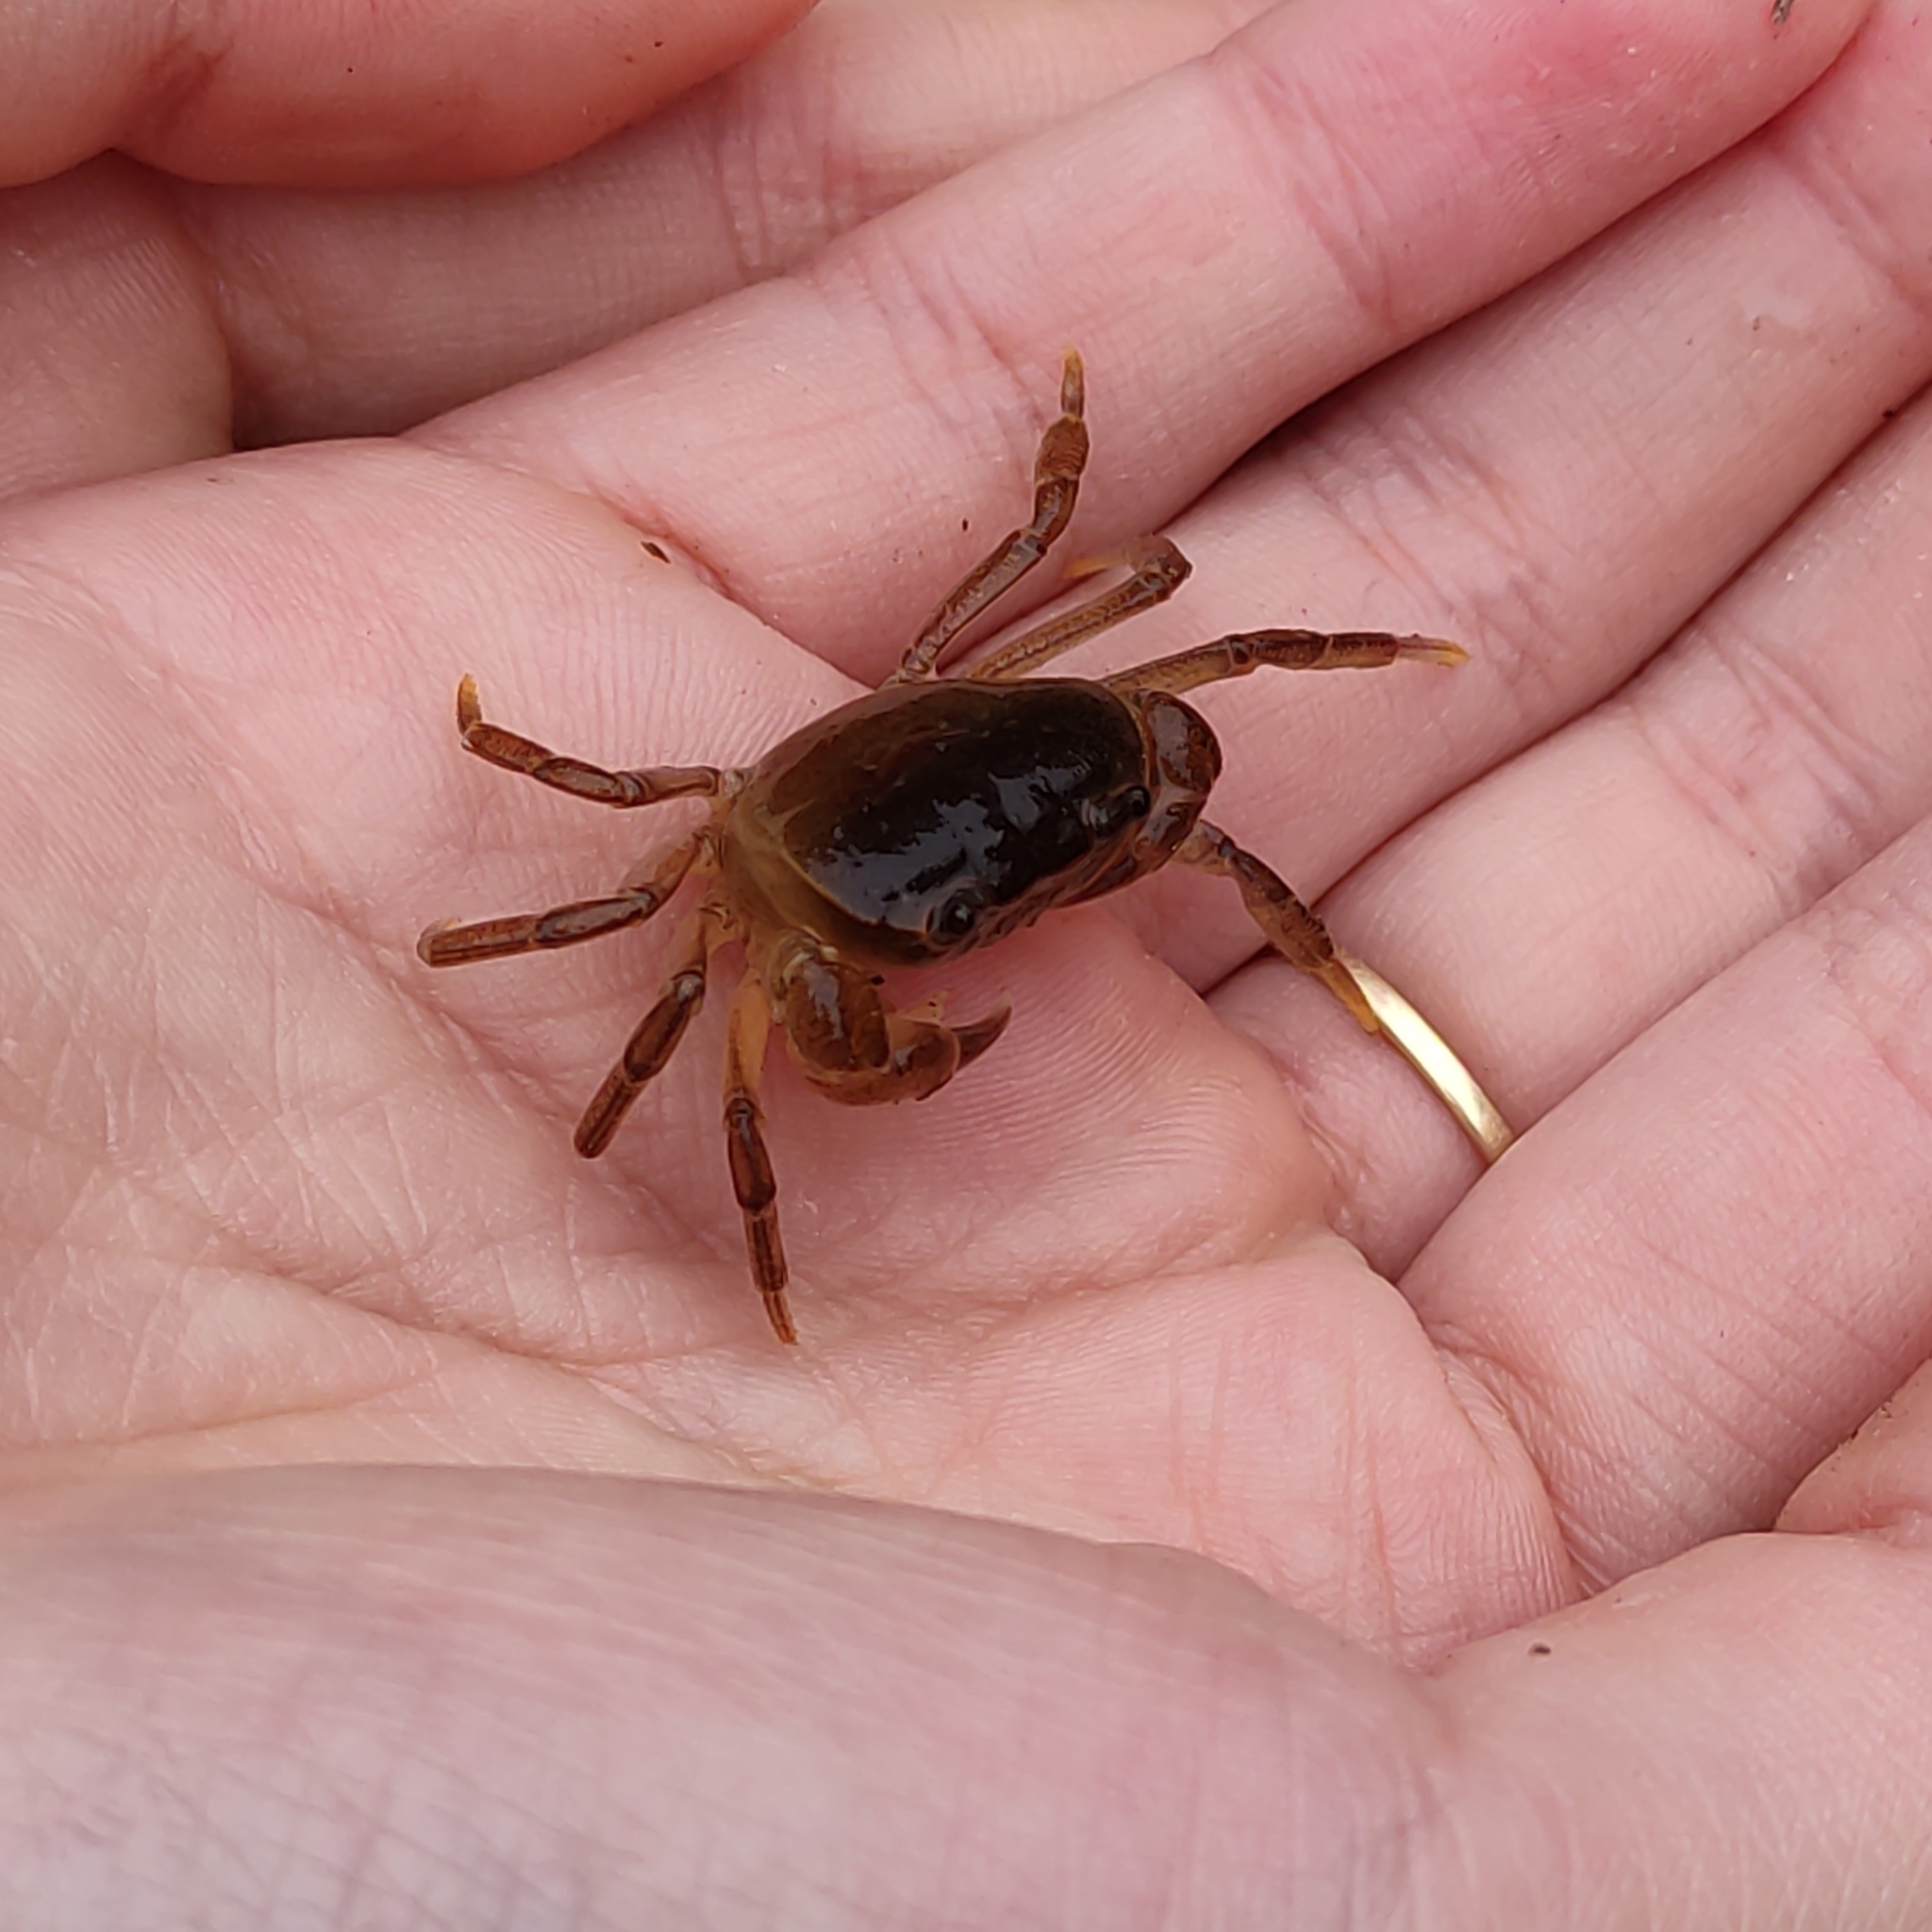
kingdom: Animalia
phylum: Arthropoda
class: Malacostraca
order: Decapoda
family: Potamidae
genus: Geothelphusa
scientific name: Geothelphusa dehaani
